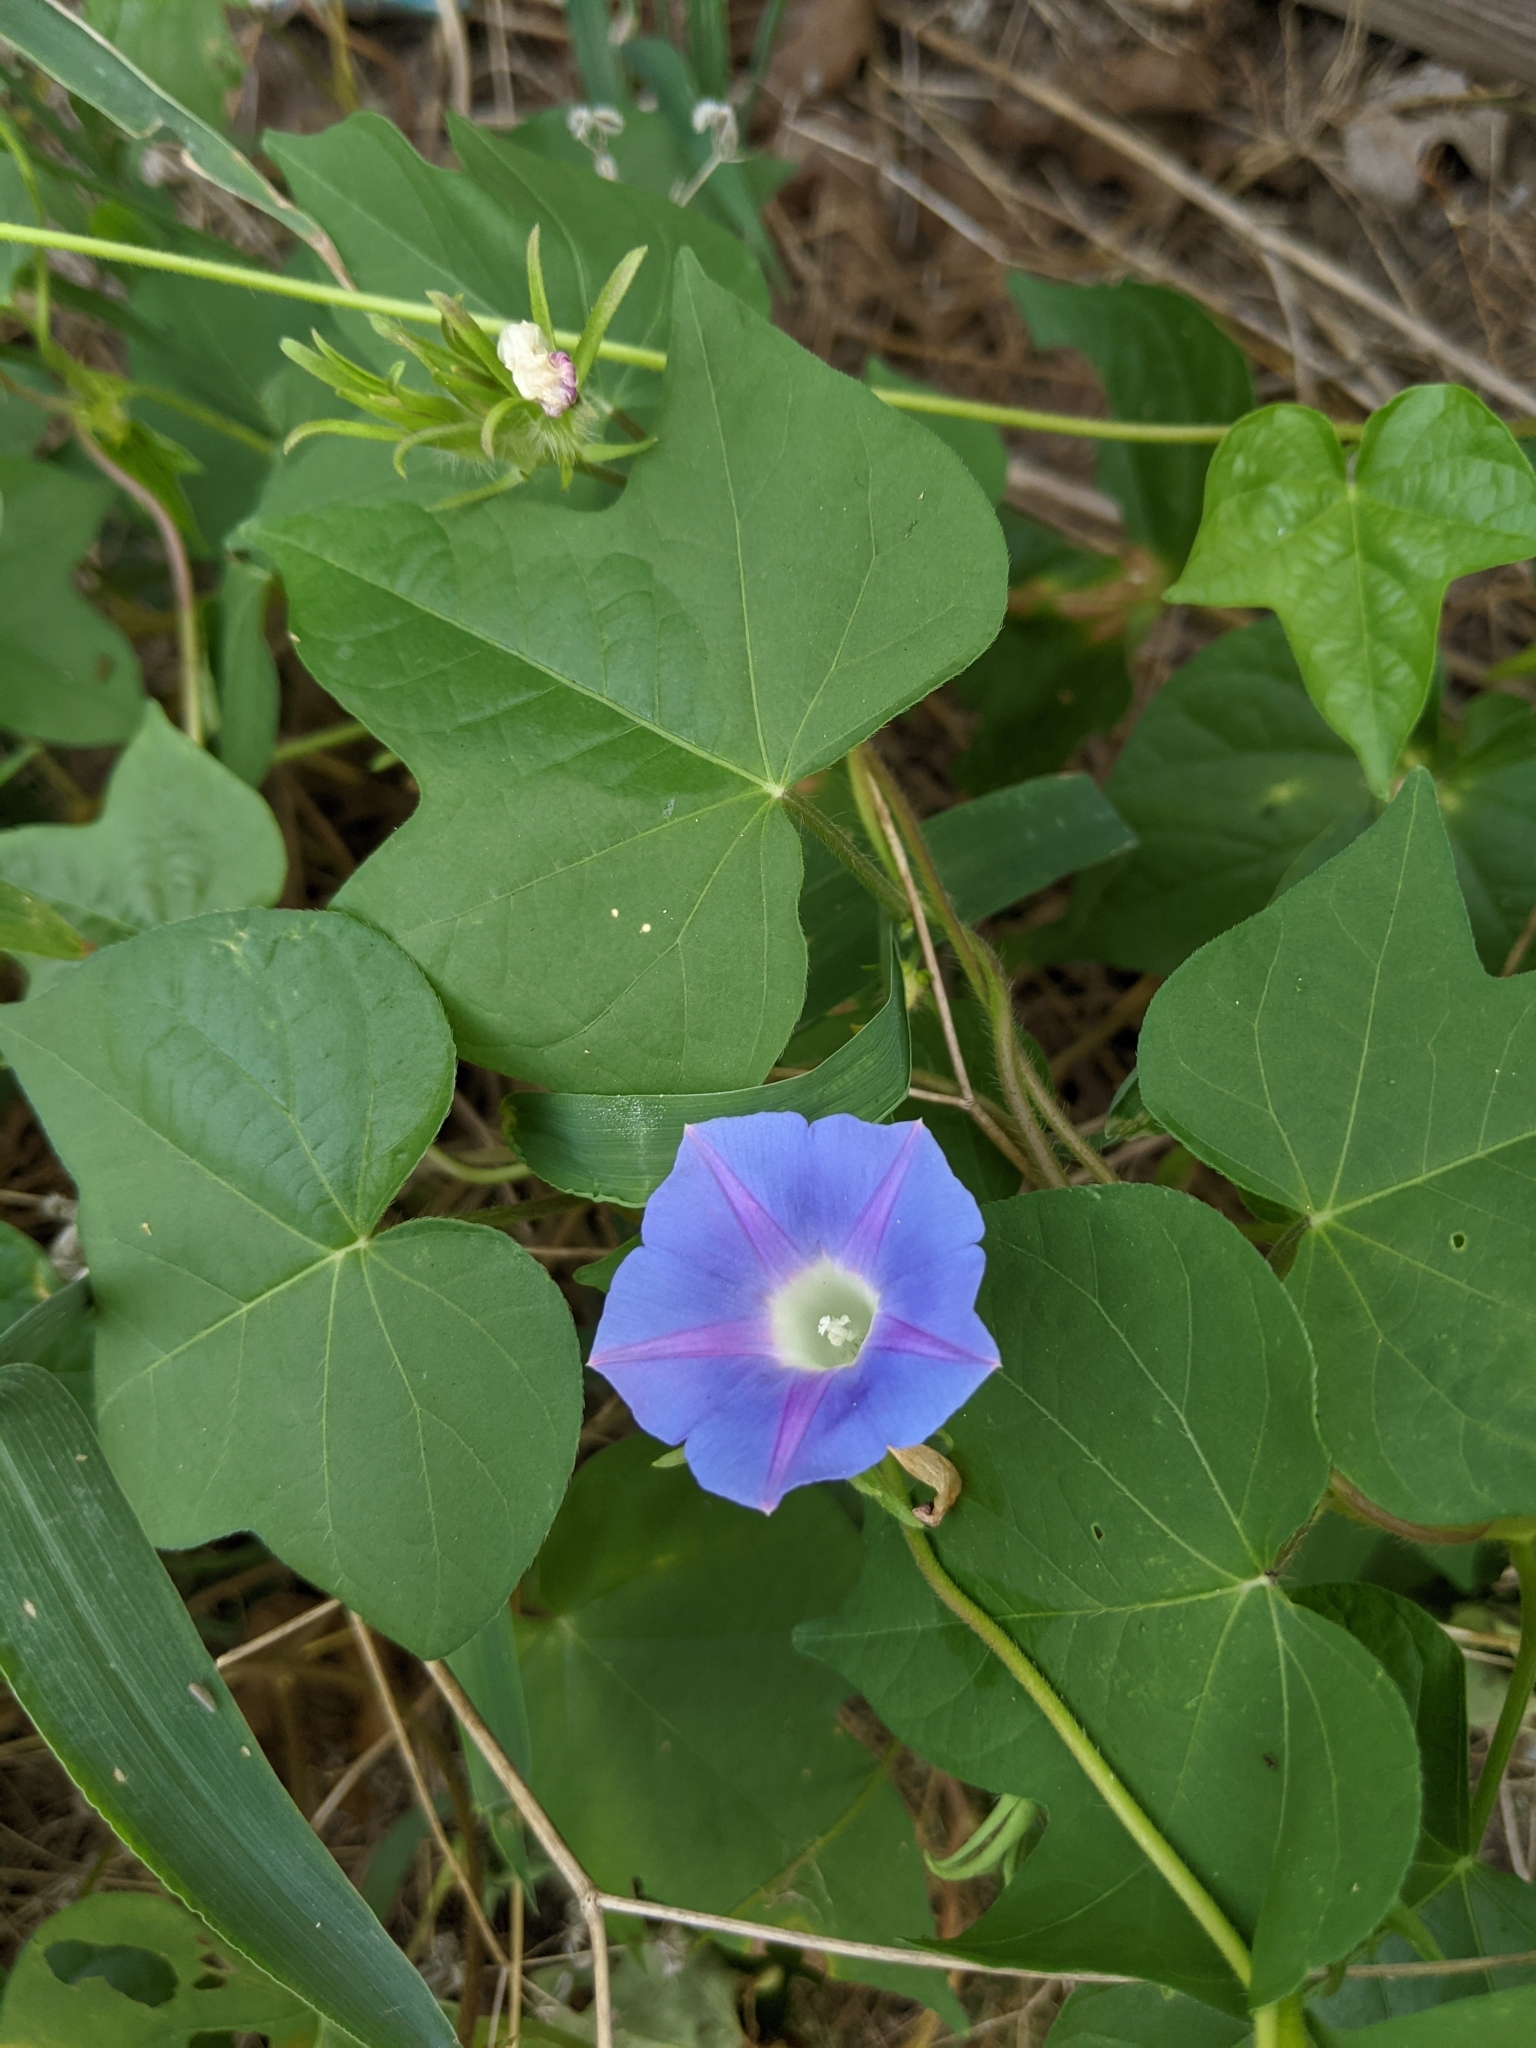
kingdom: Plantae
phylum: Tracheophyta
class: Magnoliopsida
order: Solanales
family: Convolvulaceae
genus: Ipomoea
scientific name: Ipomoea hederacea
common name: Ivy-leaved morning-glory
